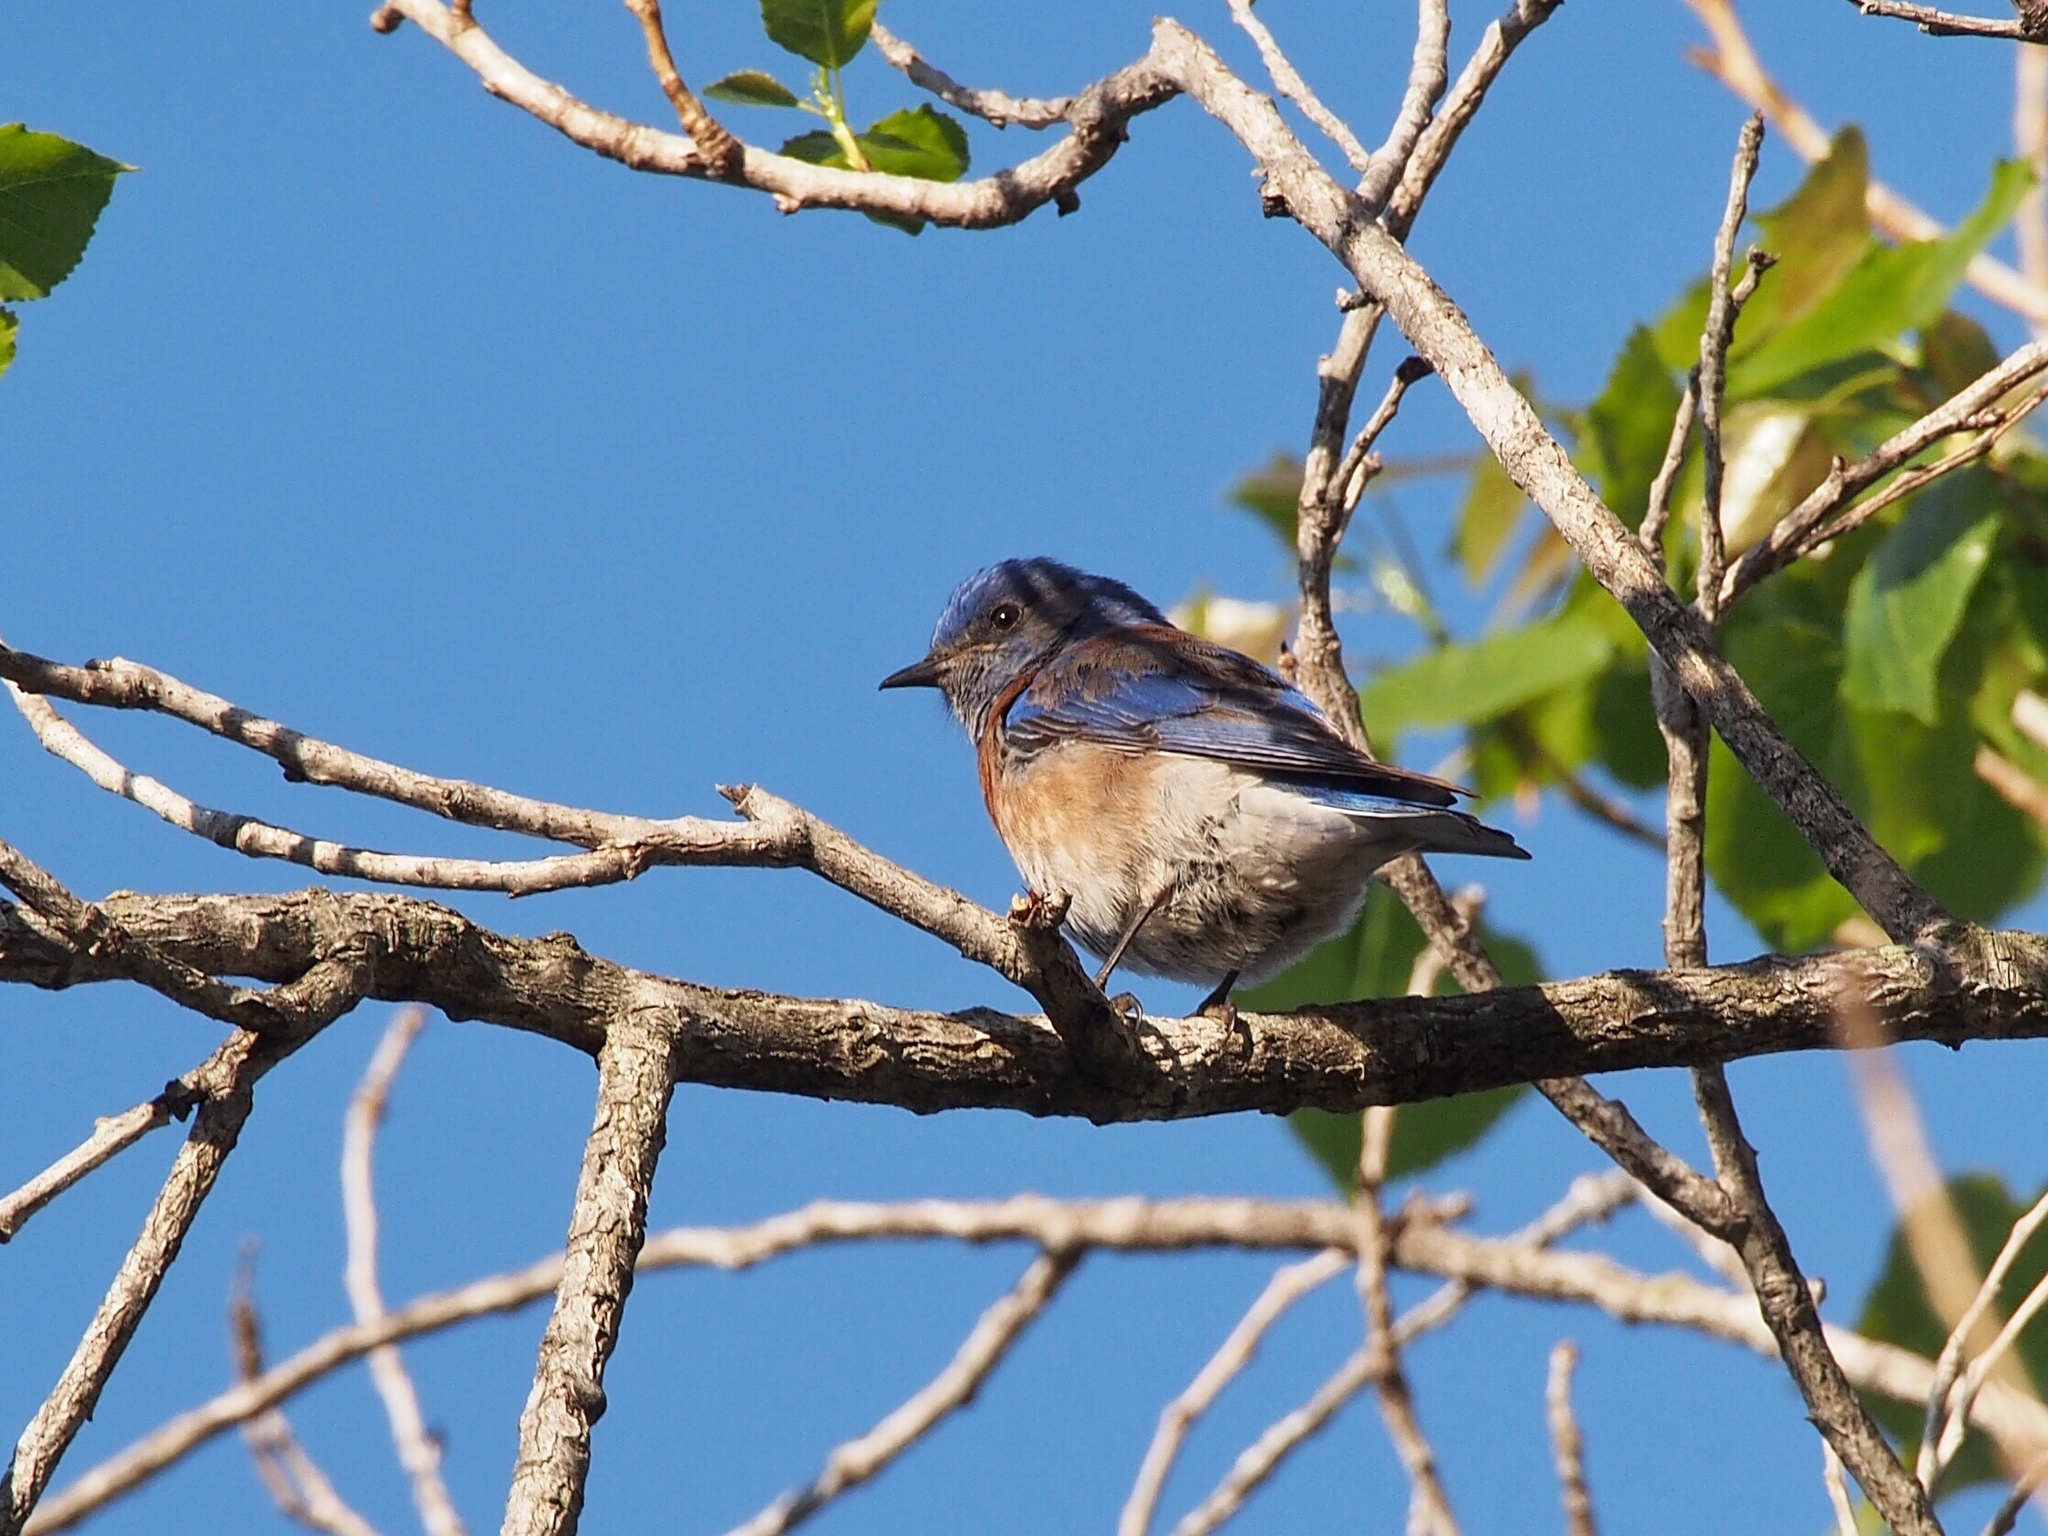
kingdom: Animalia
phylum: Chordata
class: Aves
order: Passeriformes
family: Turdidae
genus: Sialia
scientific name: Sialia mexicana
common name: Western bluebird
